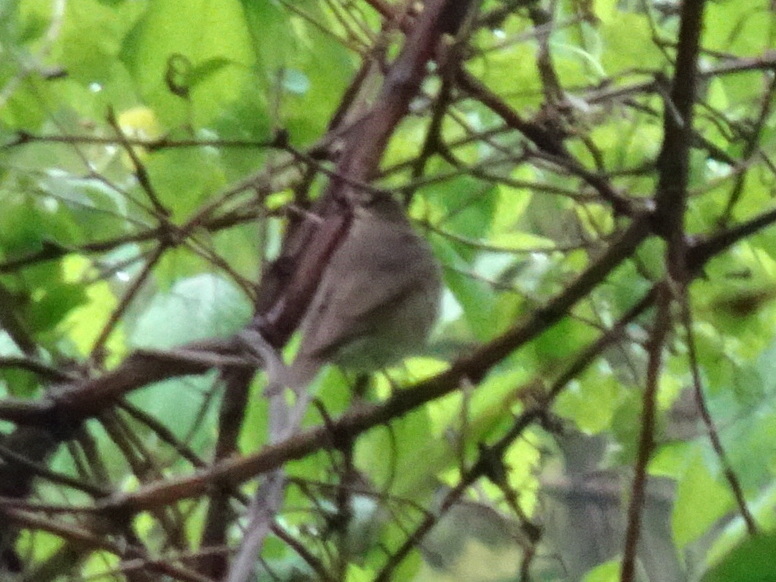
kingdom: Animalia
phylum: Chordata
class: Aves
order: Passeriformes
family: Turdidae
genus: Catharus
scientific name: Catharus ustulatus
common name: Swainson's thrush
